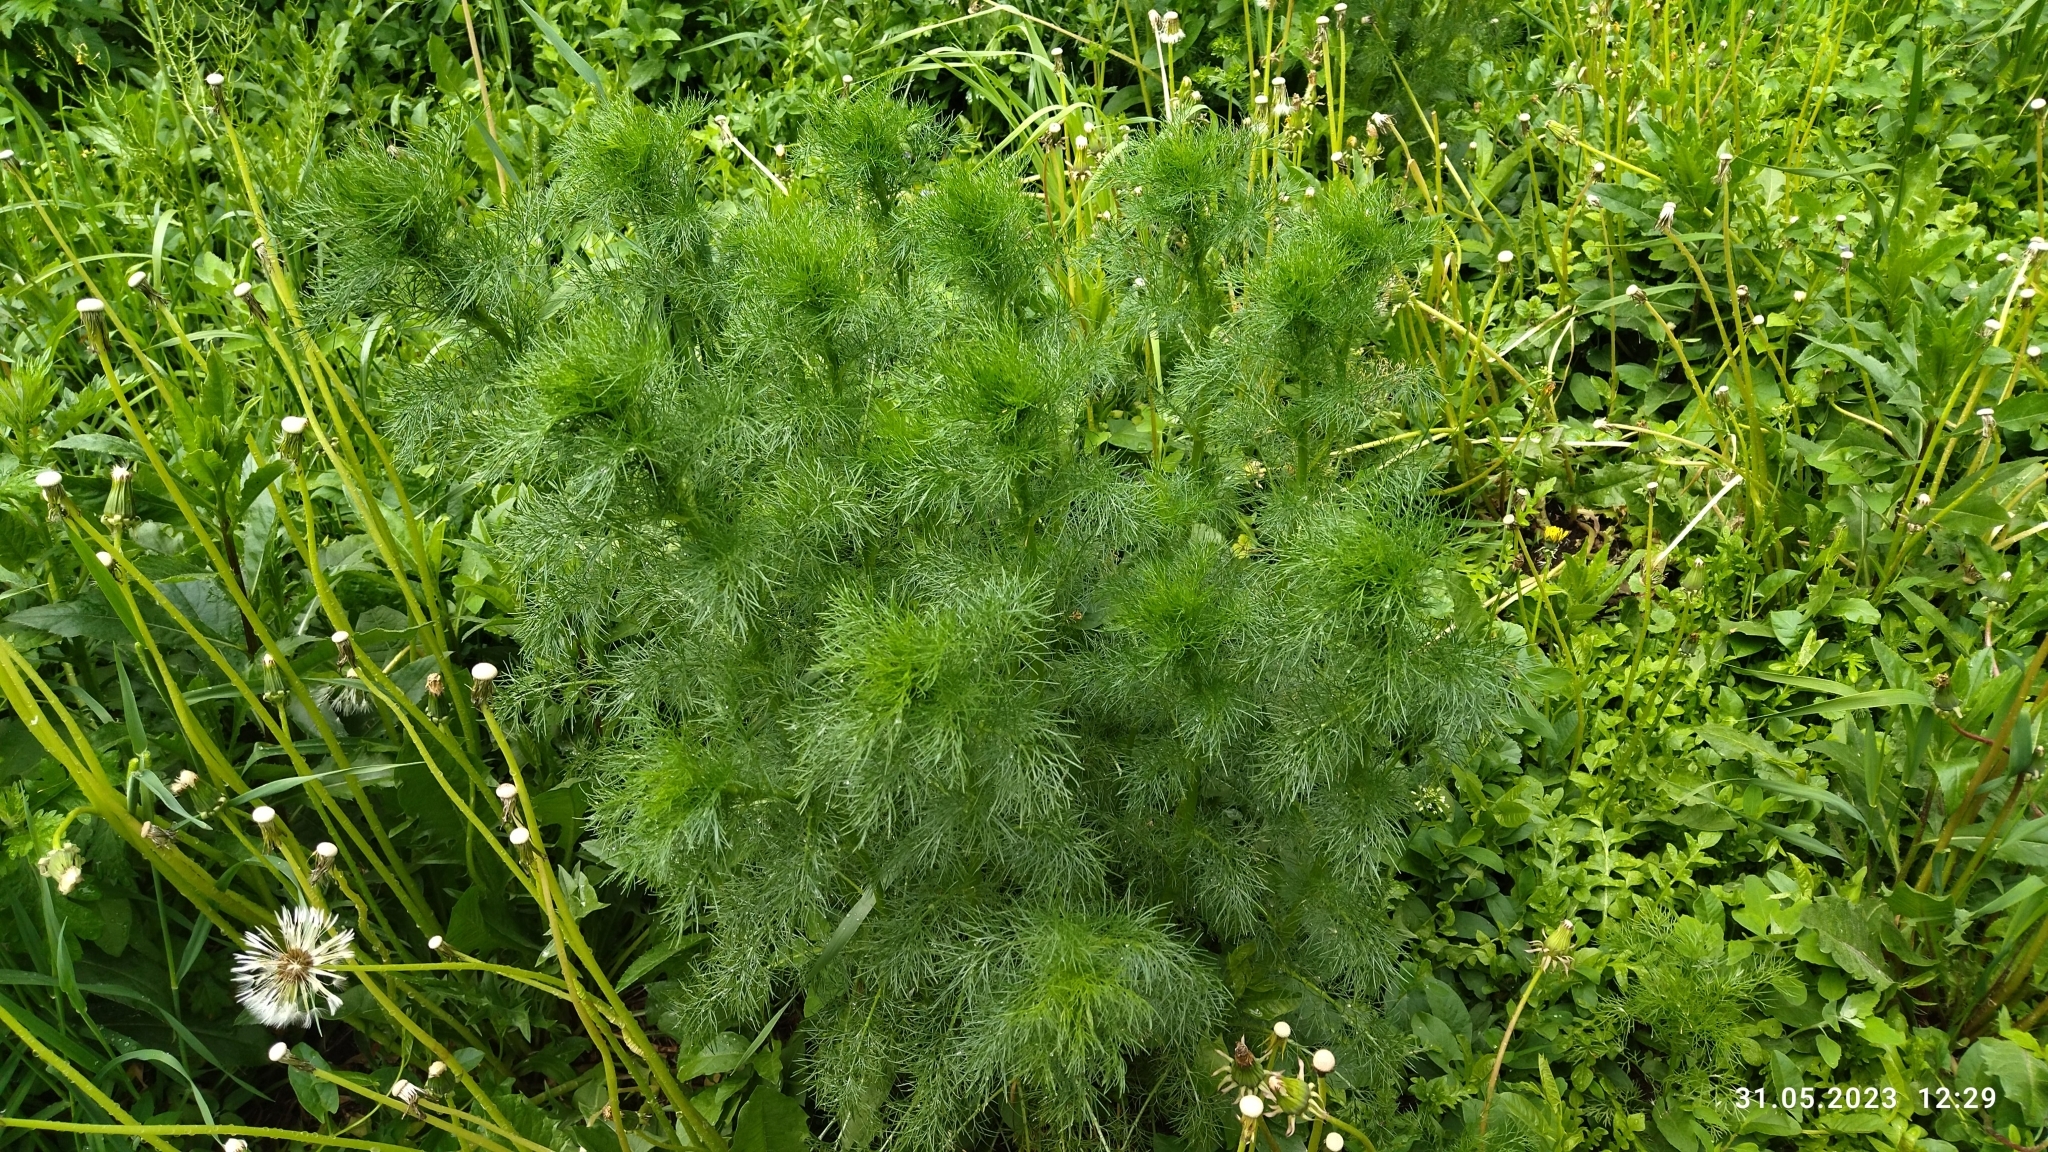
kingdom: Plantae
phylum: Tracheophyta
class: Magnoliopsida
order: Asterales
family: Asteraceae
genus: Tripleurospermum
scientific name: Tripleurospermum inodorum
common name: Scentless mayweed
